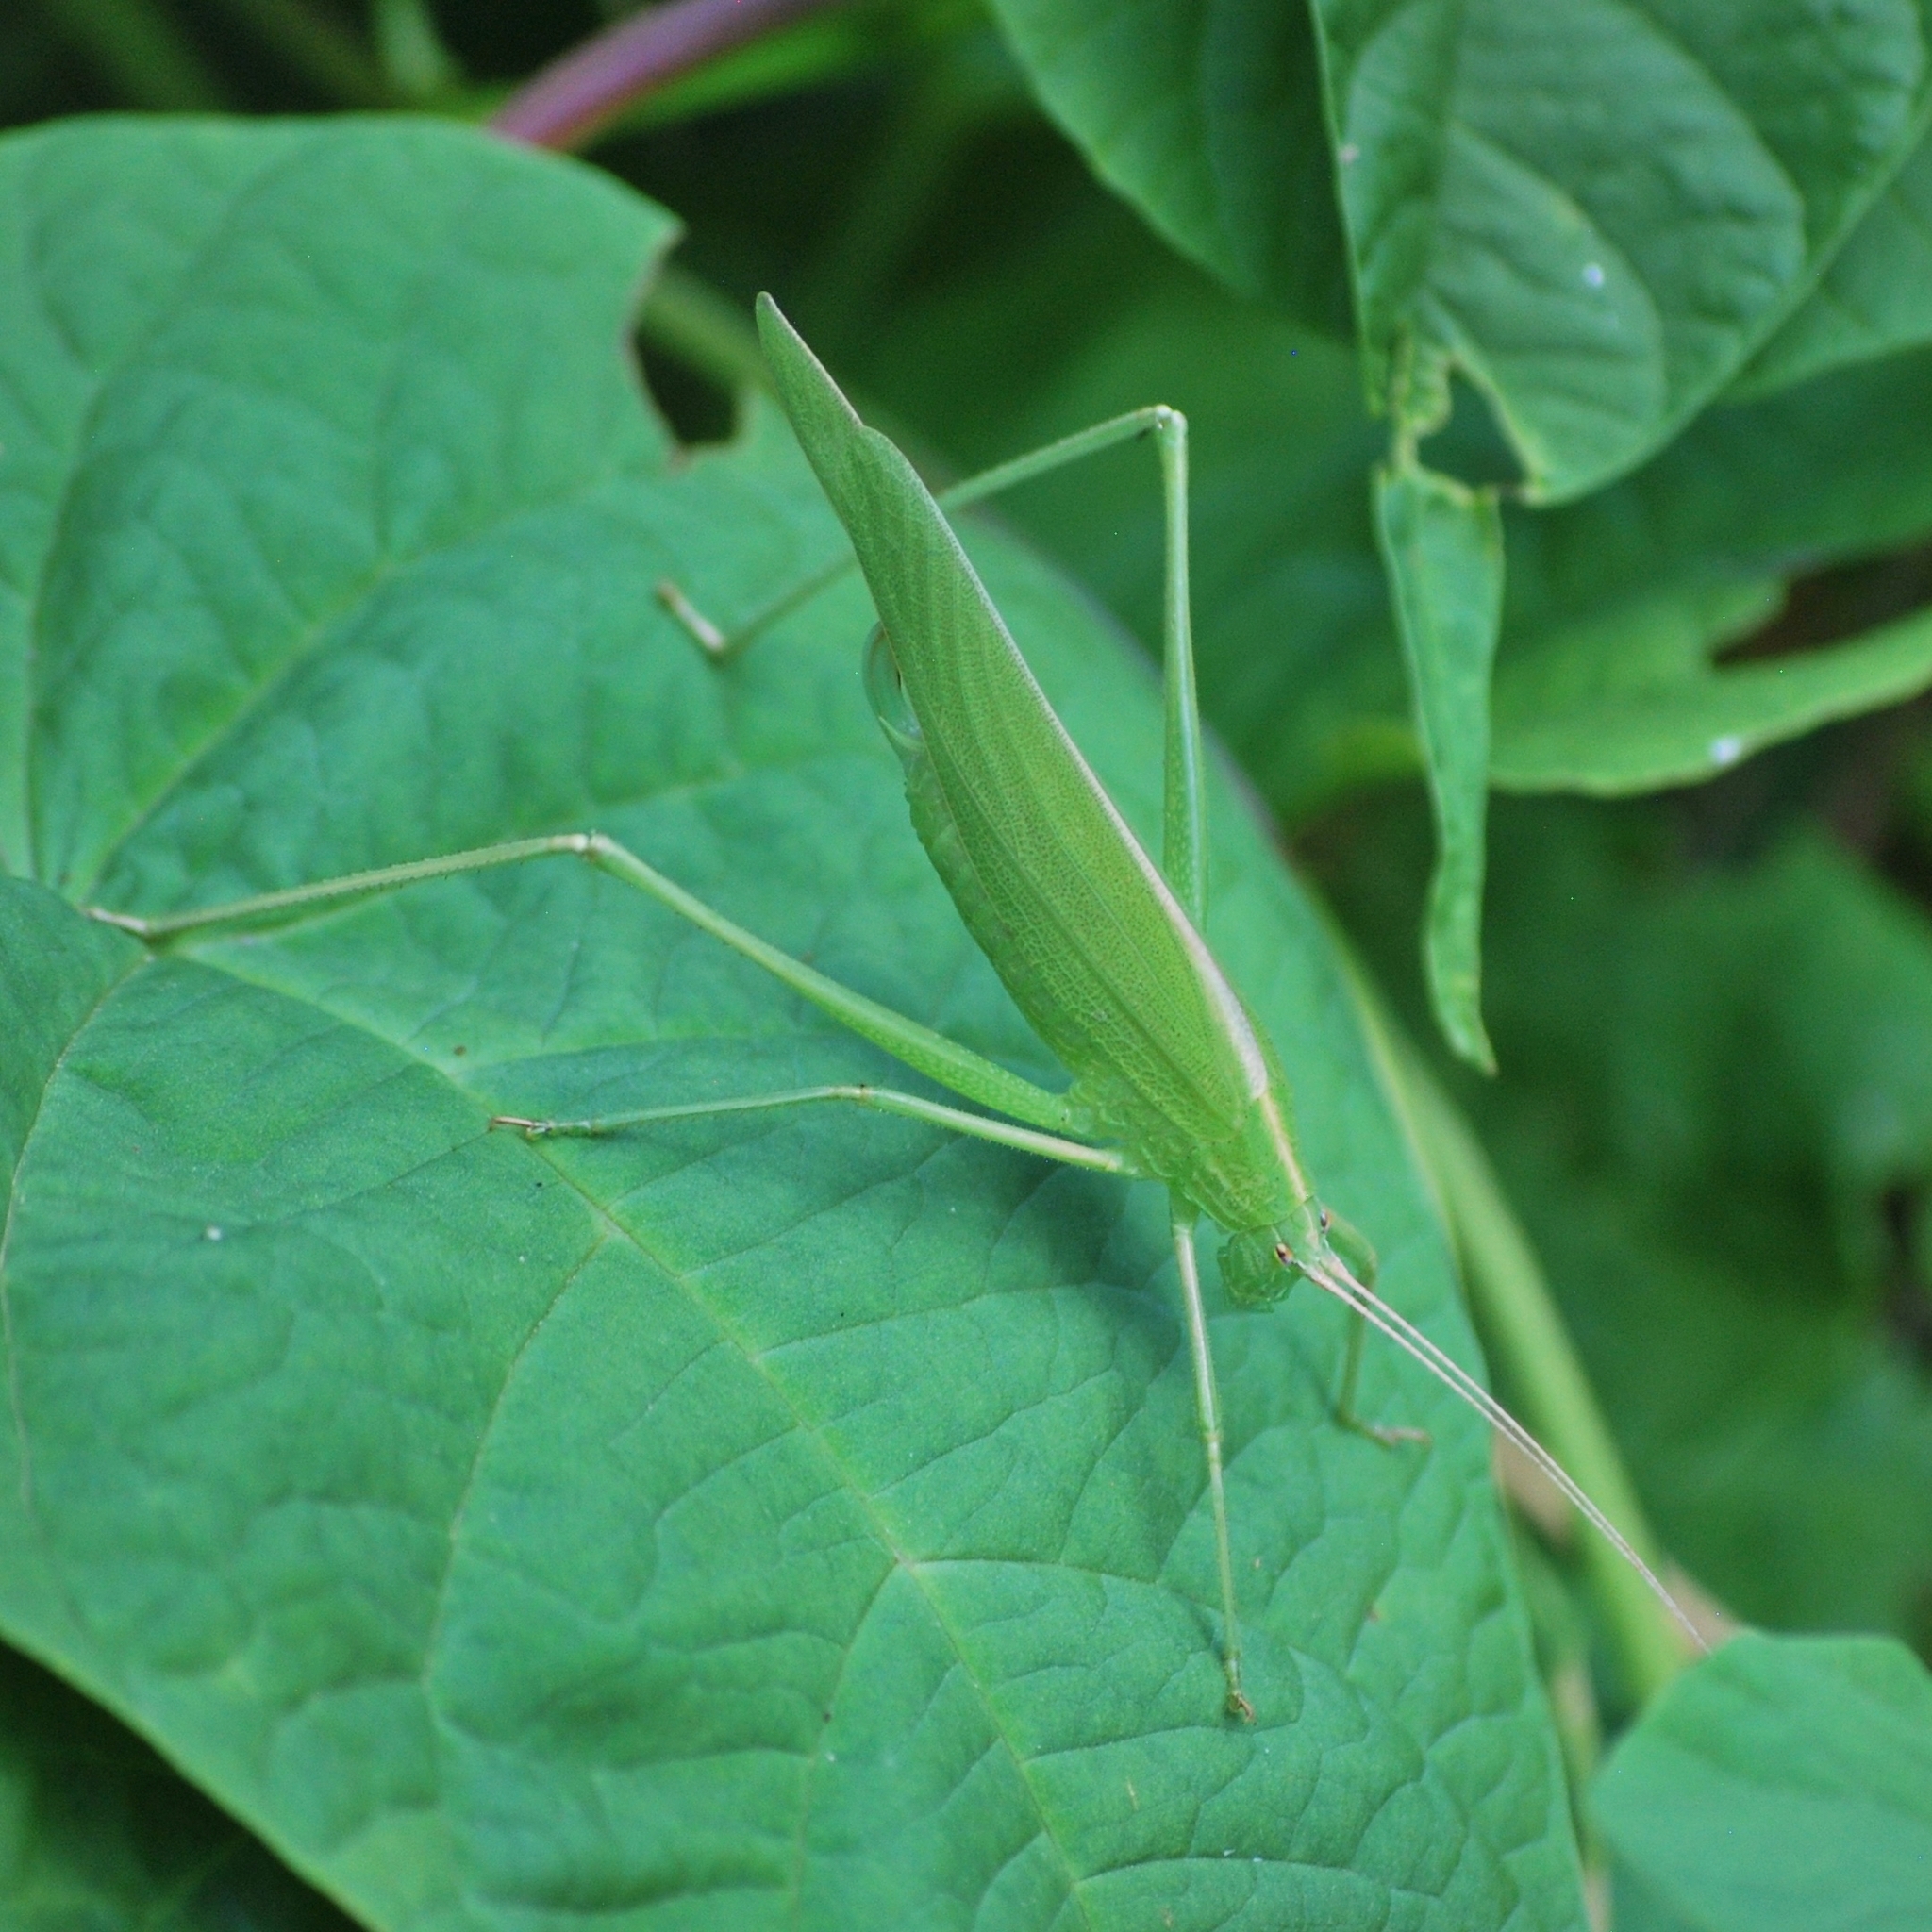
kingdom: Animalia
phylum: Arthropoda
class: Insecta
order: Orthoptera
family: Tettigoniidae
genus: Ducetia
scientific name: Ducetia japonica
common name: Pacific ducetia
